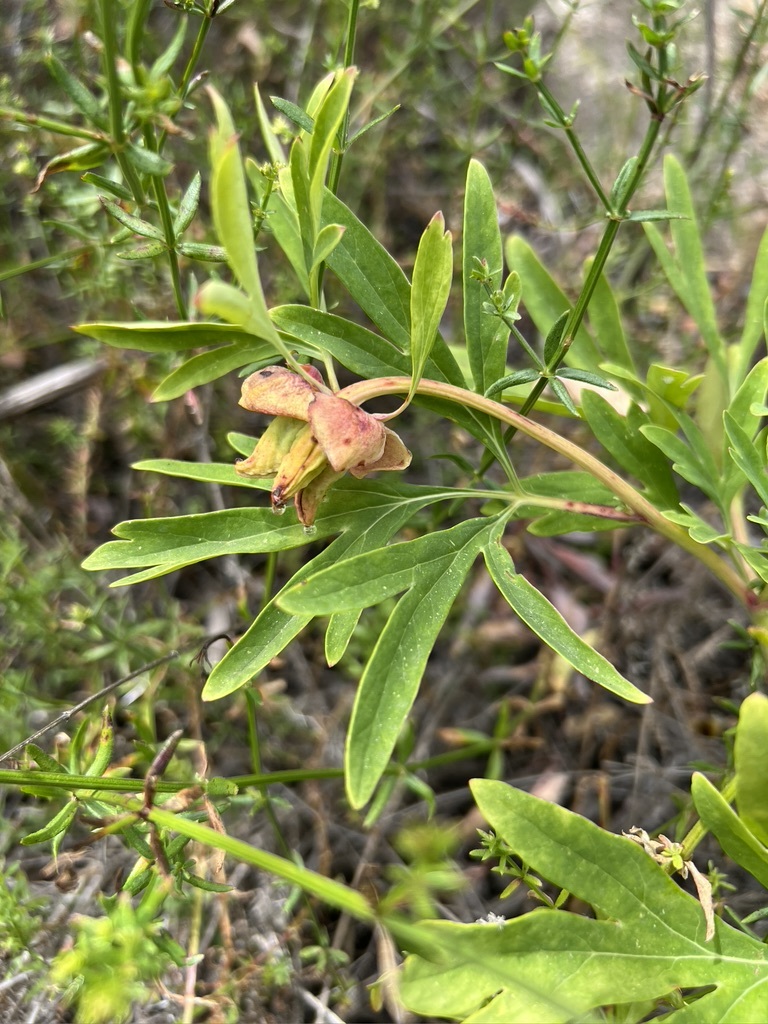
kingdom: Plantae
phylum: Tracheophyta
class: Magnoliopsida
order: Saxifragales
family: Paeoniaceae
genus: Paeonia
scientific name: Paeonia californica
